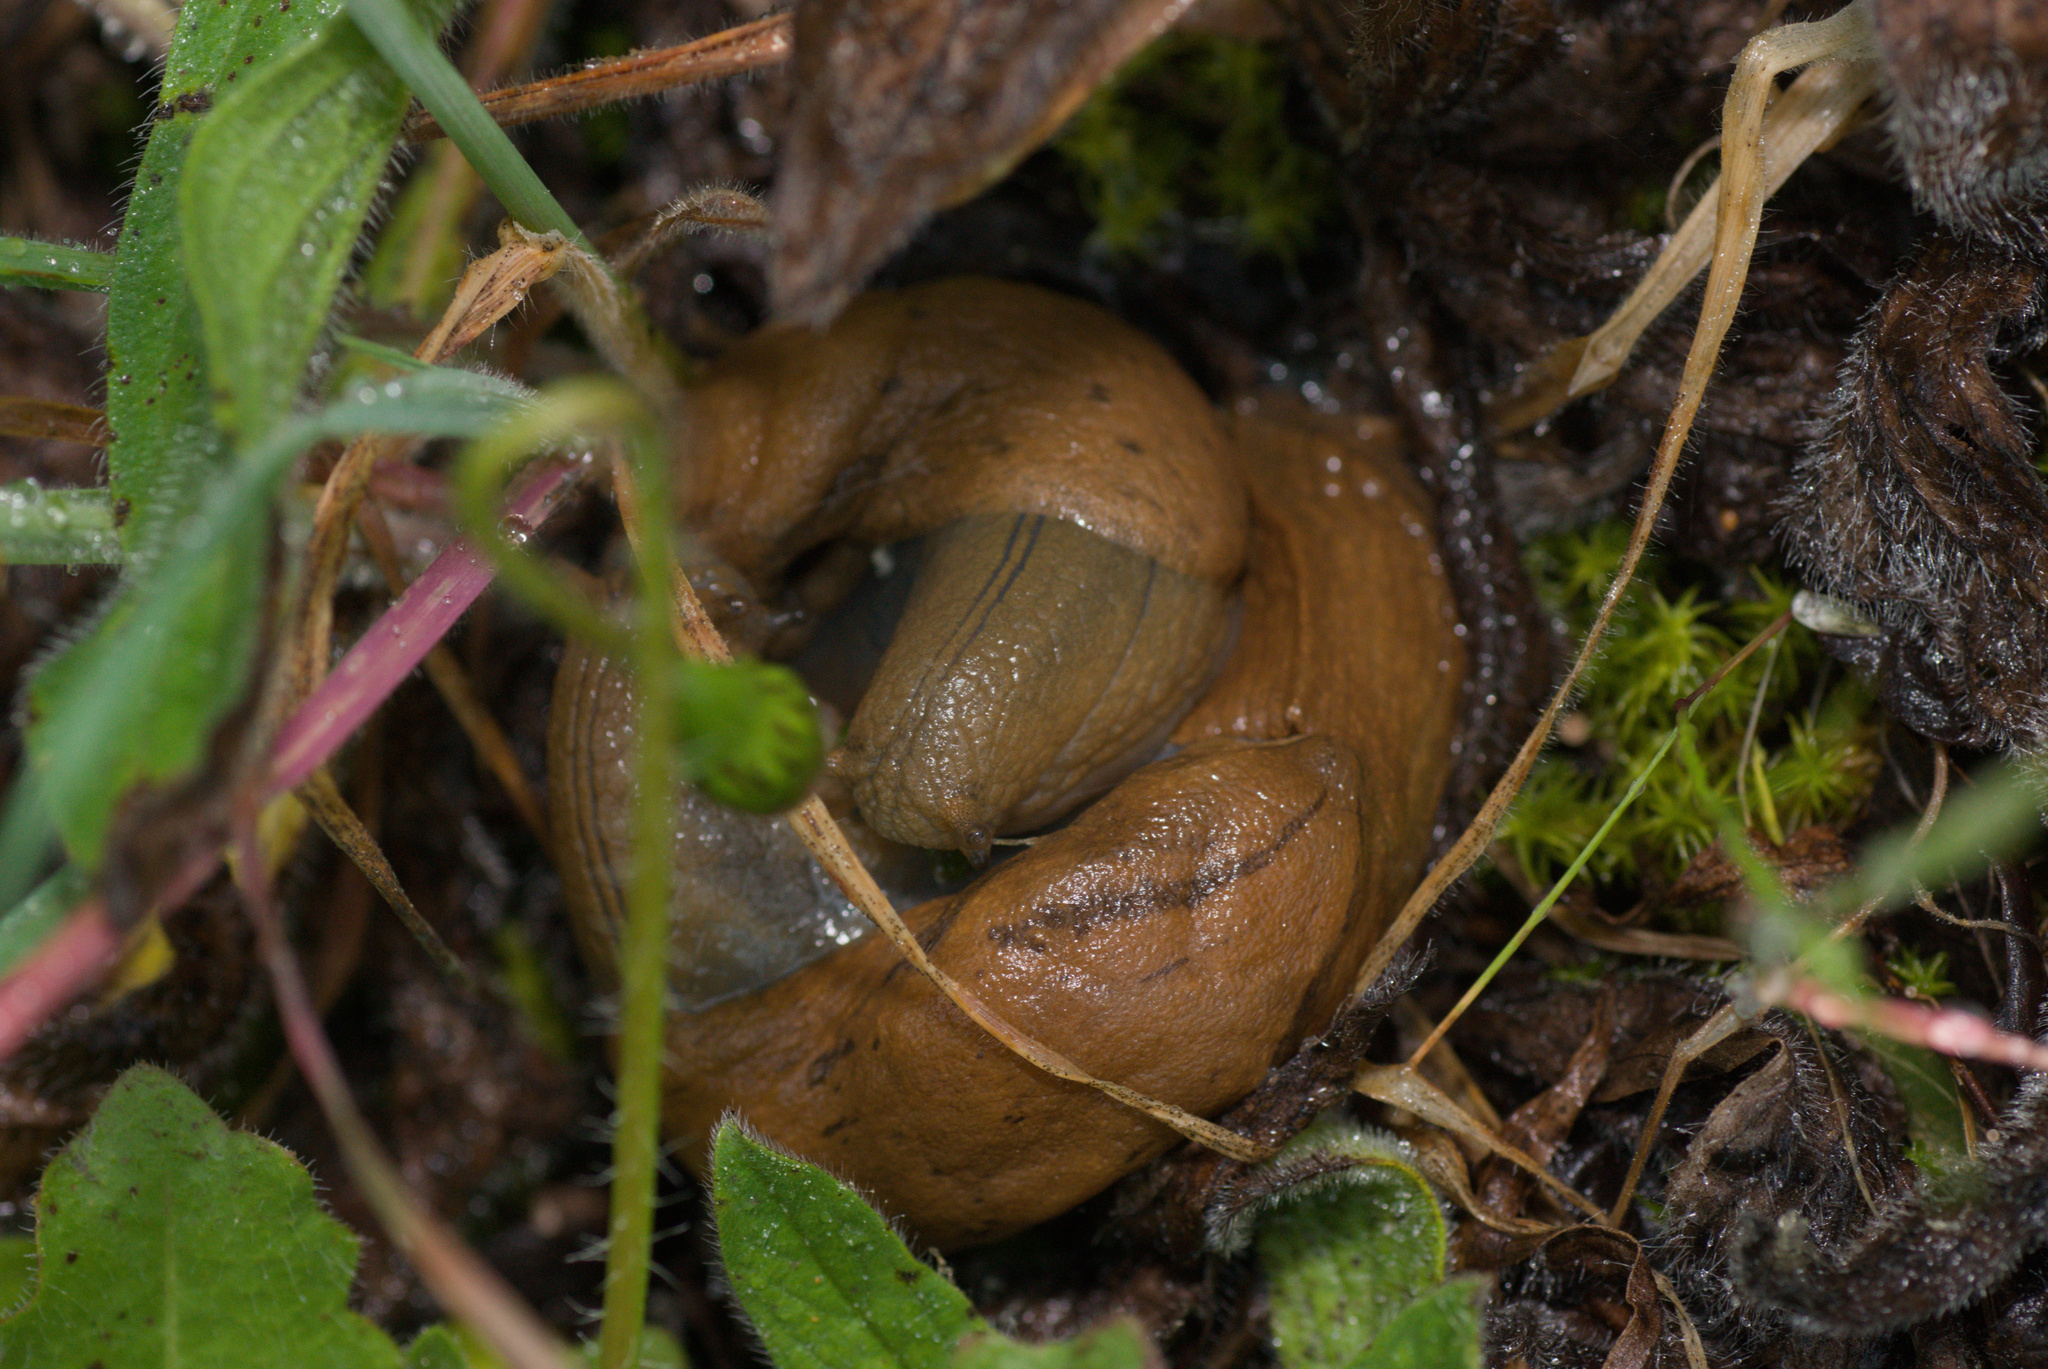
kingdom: Animalia
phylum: Mollusca
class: Gastropoda
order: Stylommatophora
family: Parmacellidae
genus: Drusia
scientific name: Drusia valenciennii
